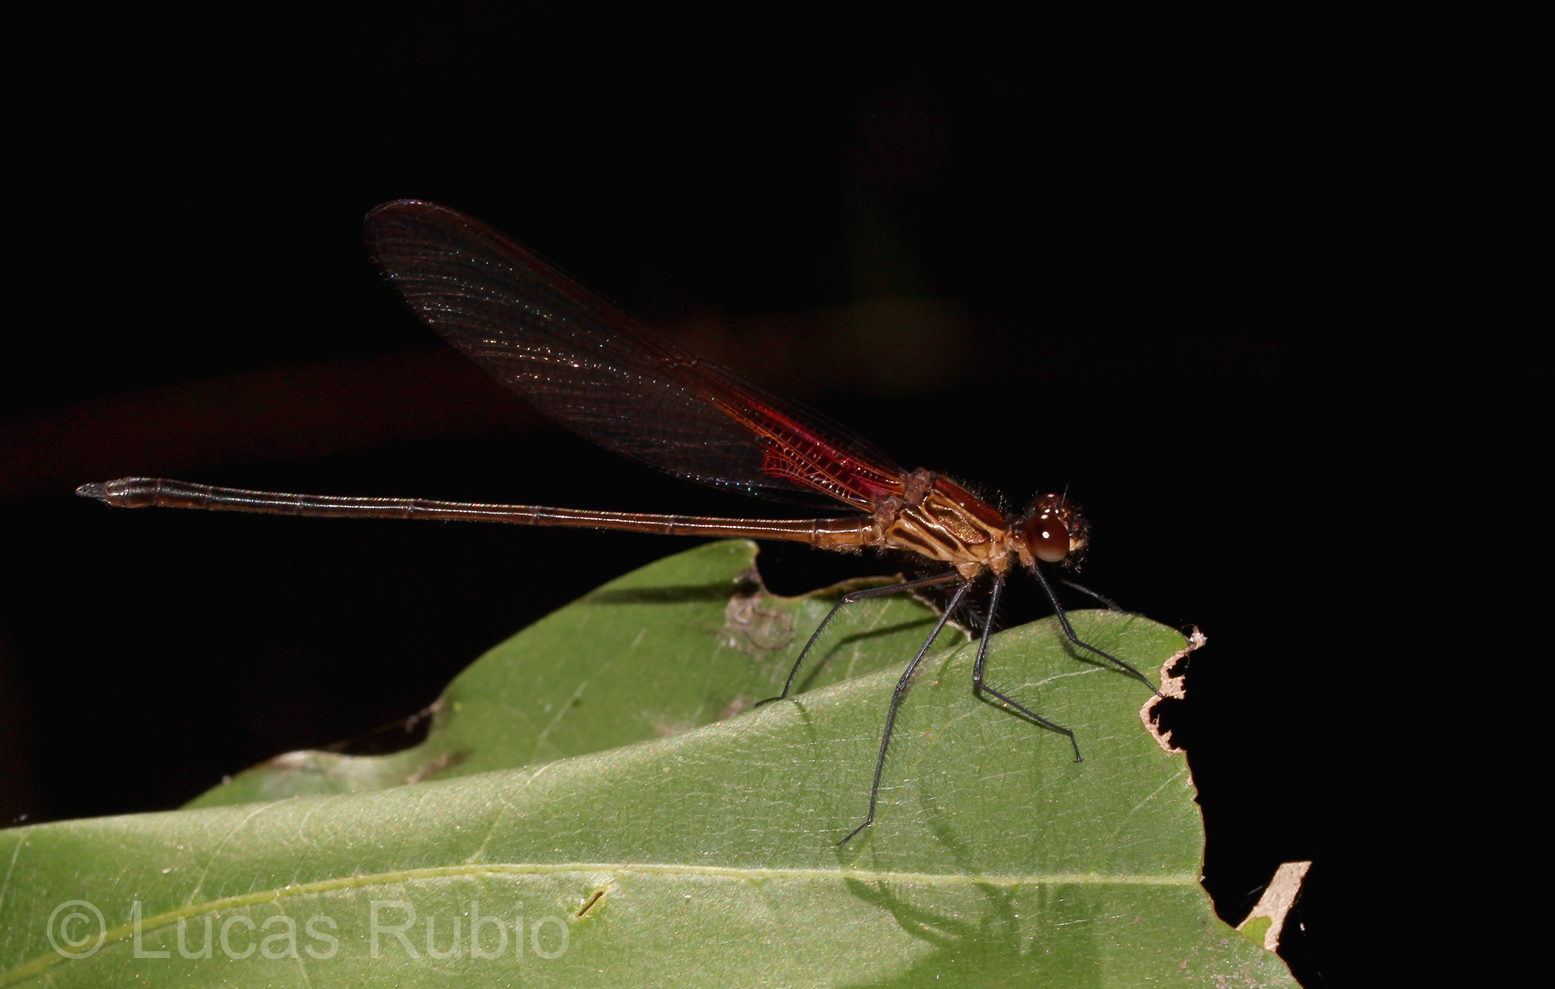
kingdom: Animalia
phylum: Arthropoda
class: Insecta
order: Odonata
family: Calopterygidae
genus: Hetaerina
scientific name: Hetaerina rosea
